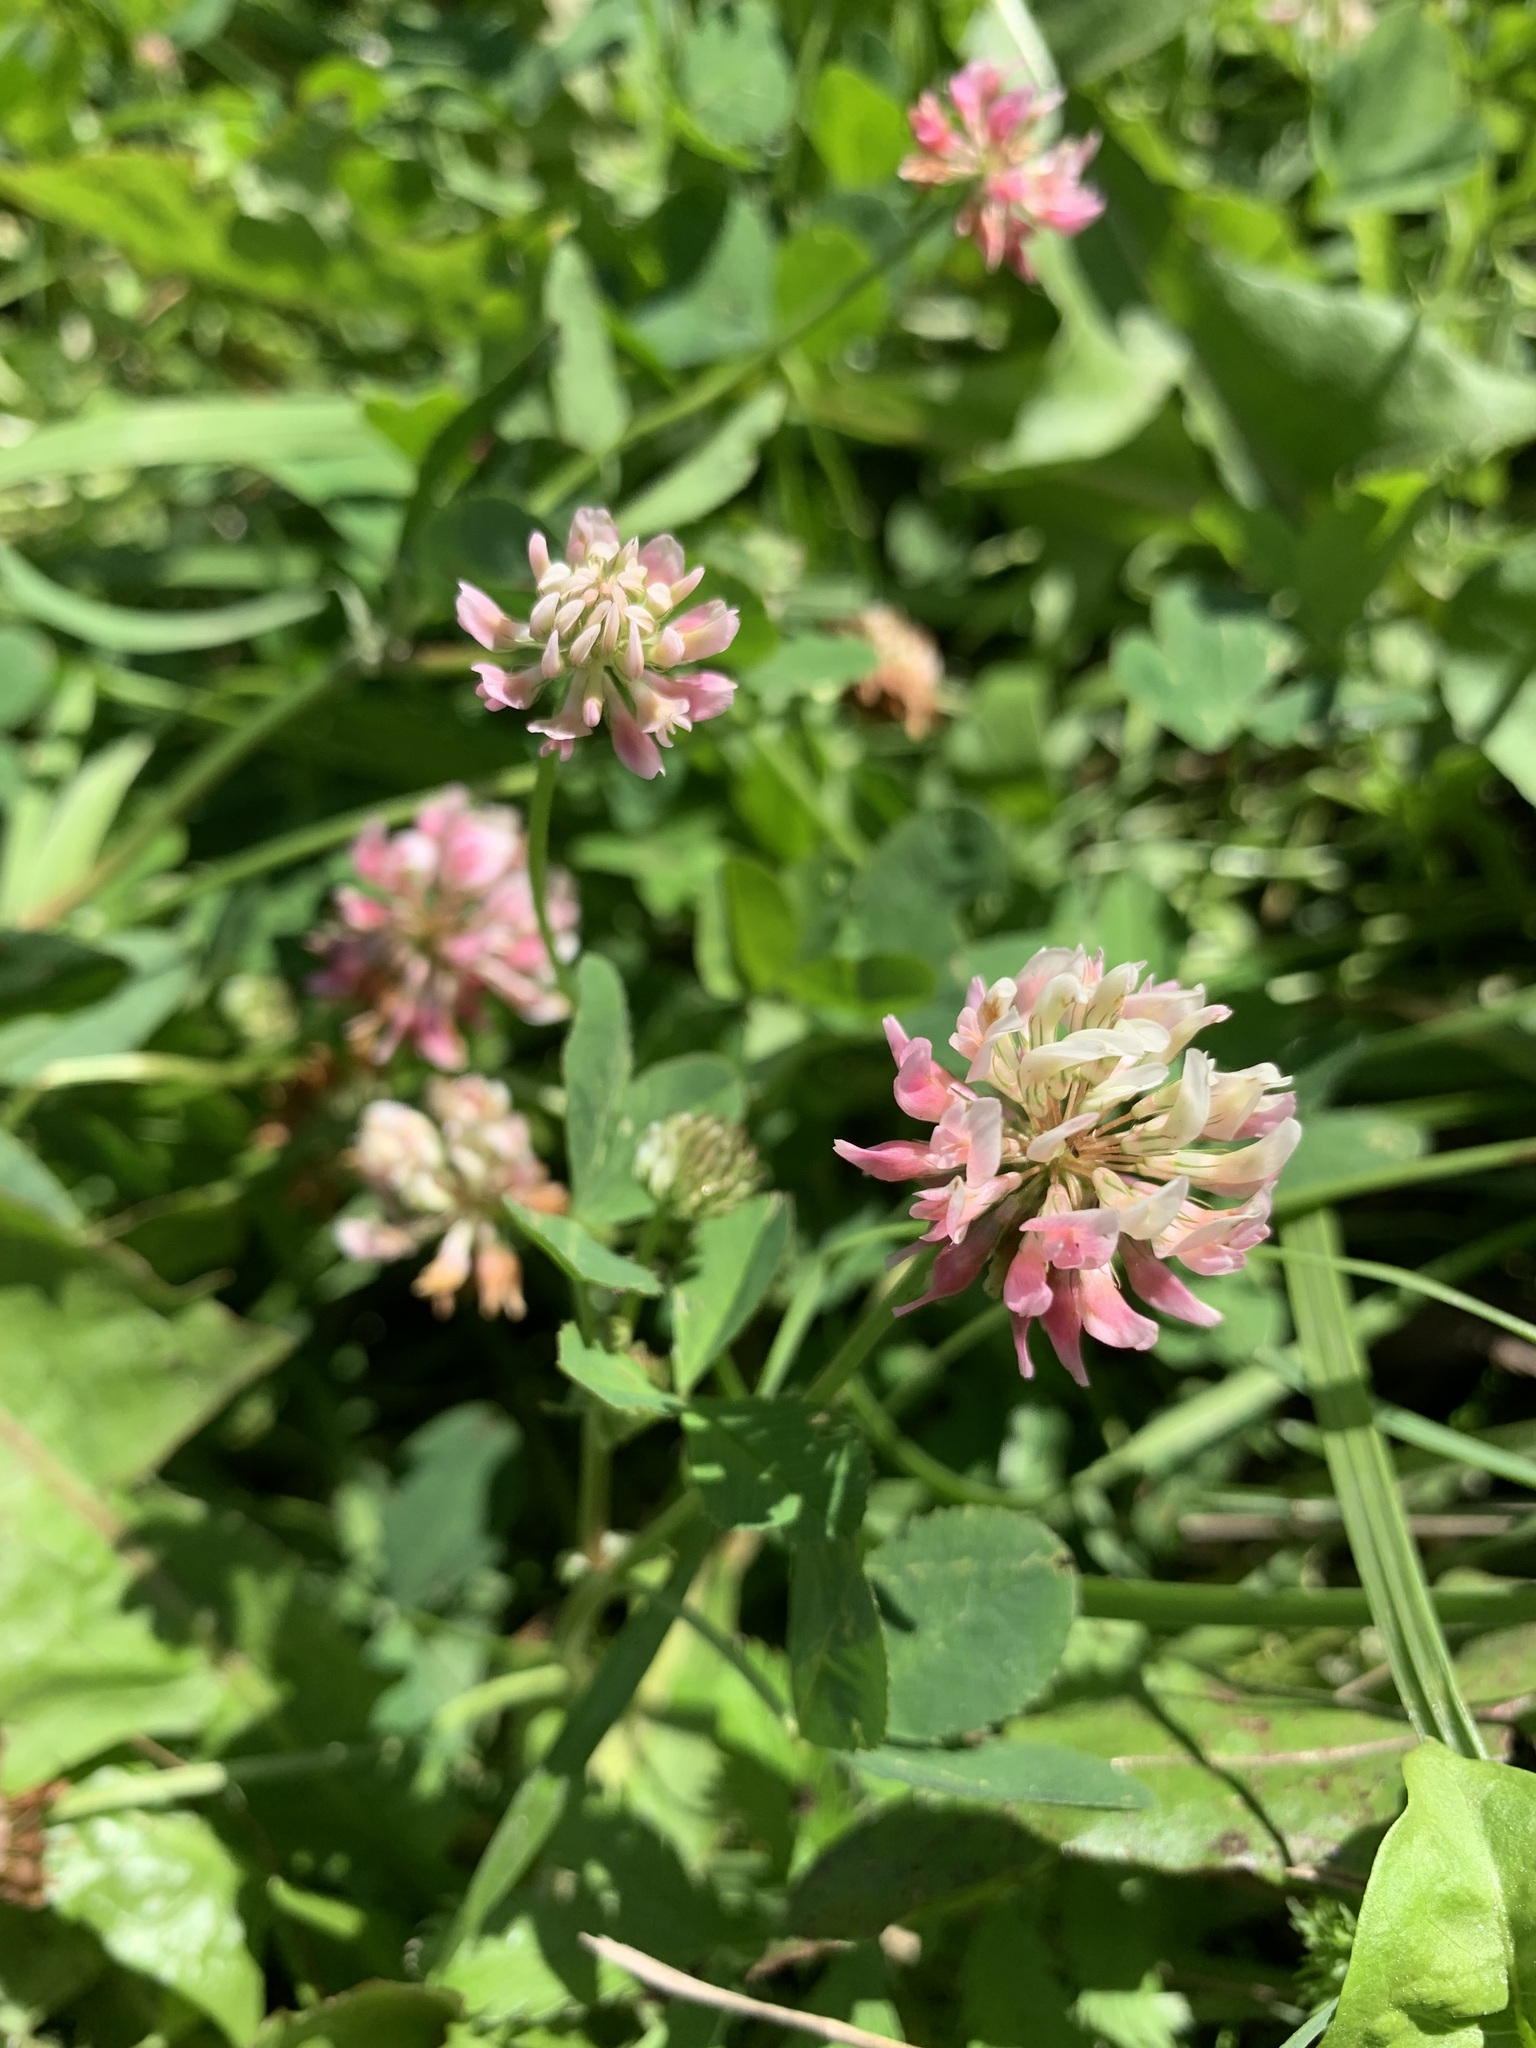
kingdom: Plantae
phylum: Tracheophyta
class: Magnoliopsida
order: Fabales
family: Fabaceae
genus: Trifolium
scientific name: Trifolium hybridum
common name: Alsike clover
